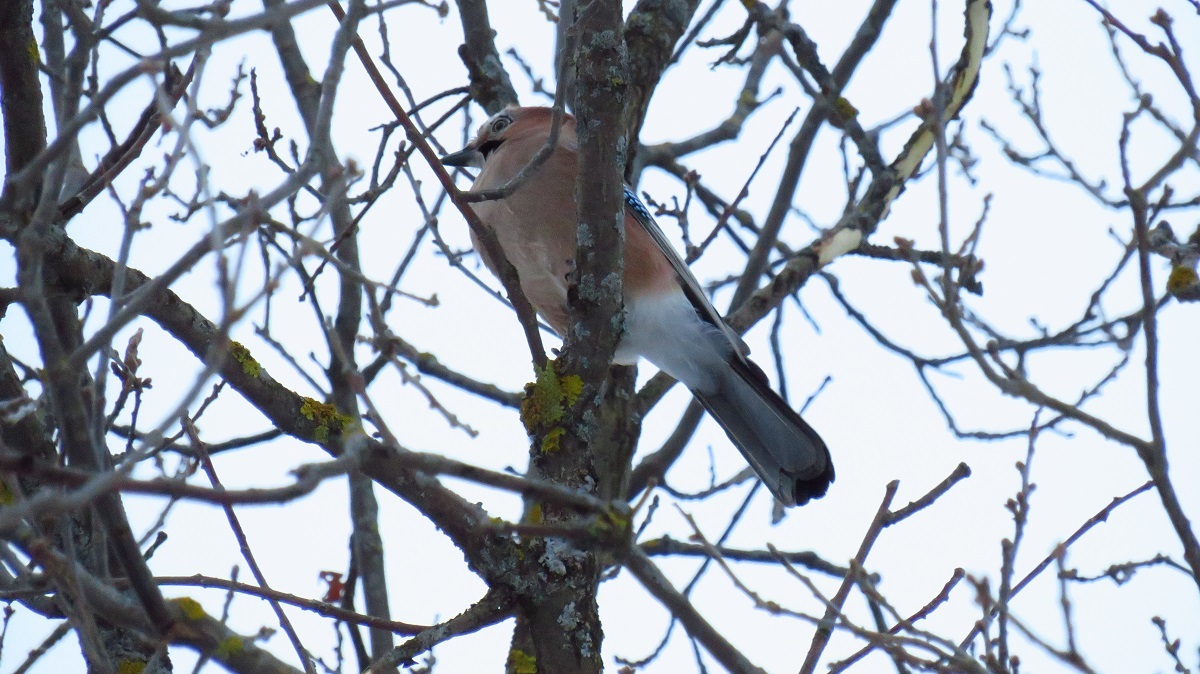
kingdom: Animalia
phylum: Chordata
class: Aves
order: Passeriformes
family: Corvidae
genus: Garrulus
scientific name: Garrulus glandarius
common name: Eurasian jay
